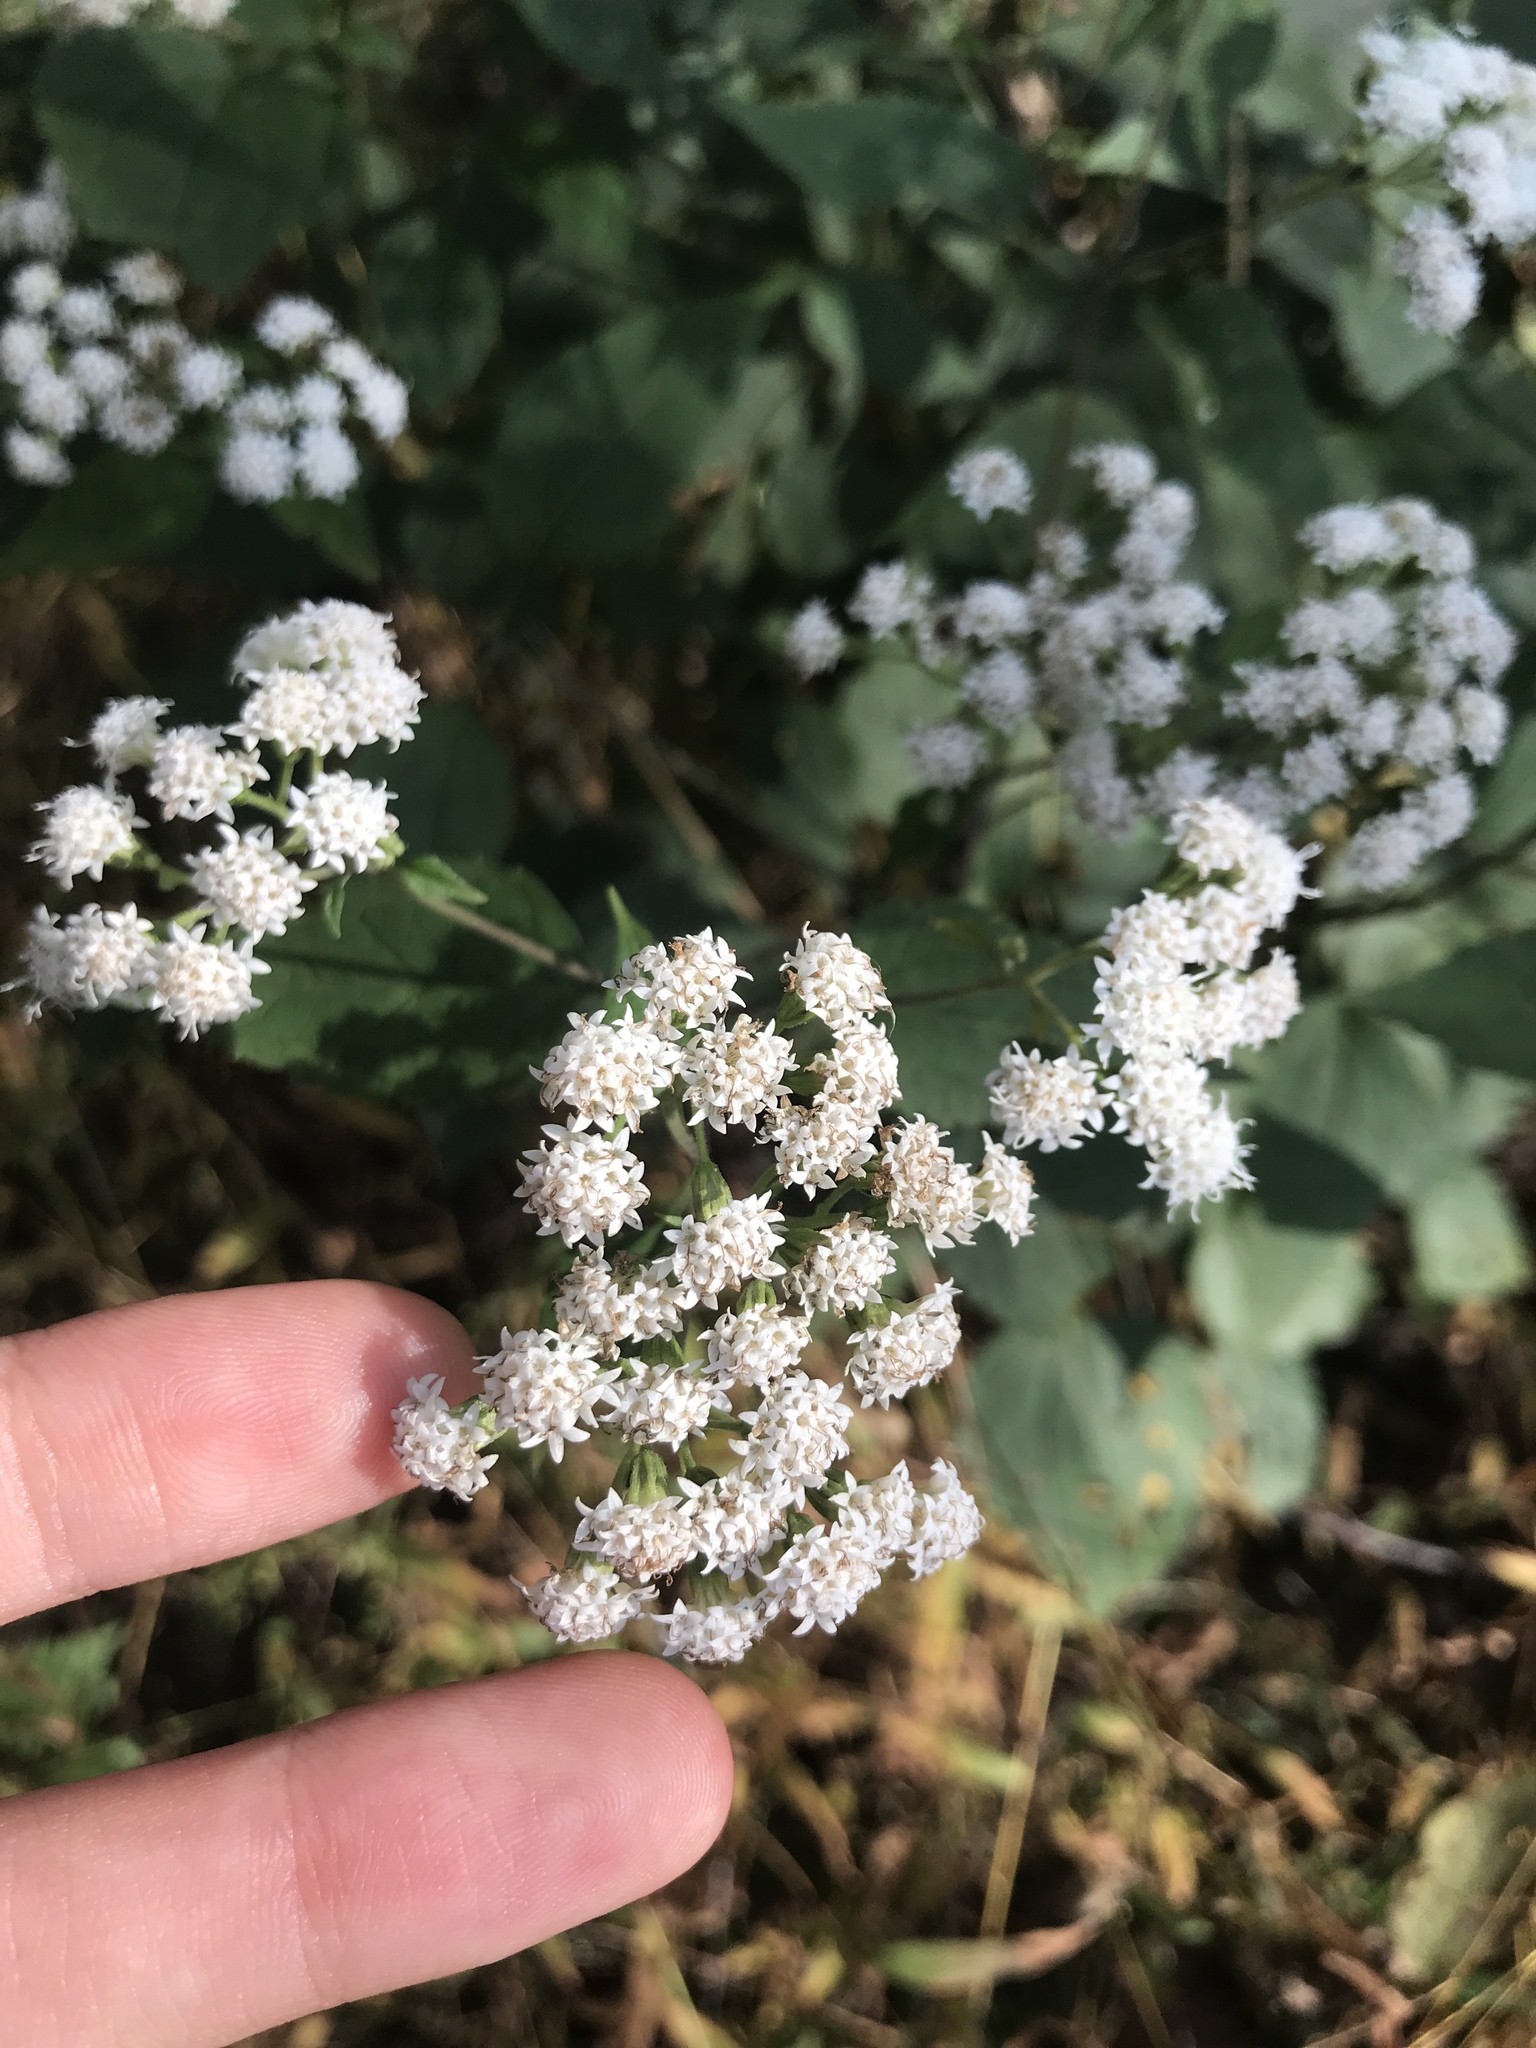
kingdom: Plantae
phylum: Tracheophyta
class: Magnoliopsida
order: Asterales
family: Asteraceae
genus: Ageratina
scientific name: Ageratina altissima
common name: White snakeroot
